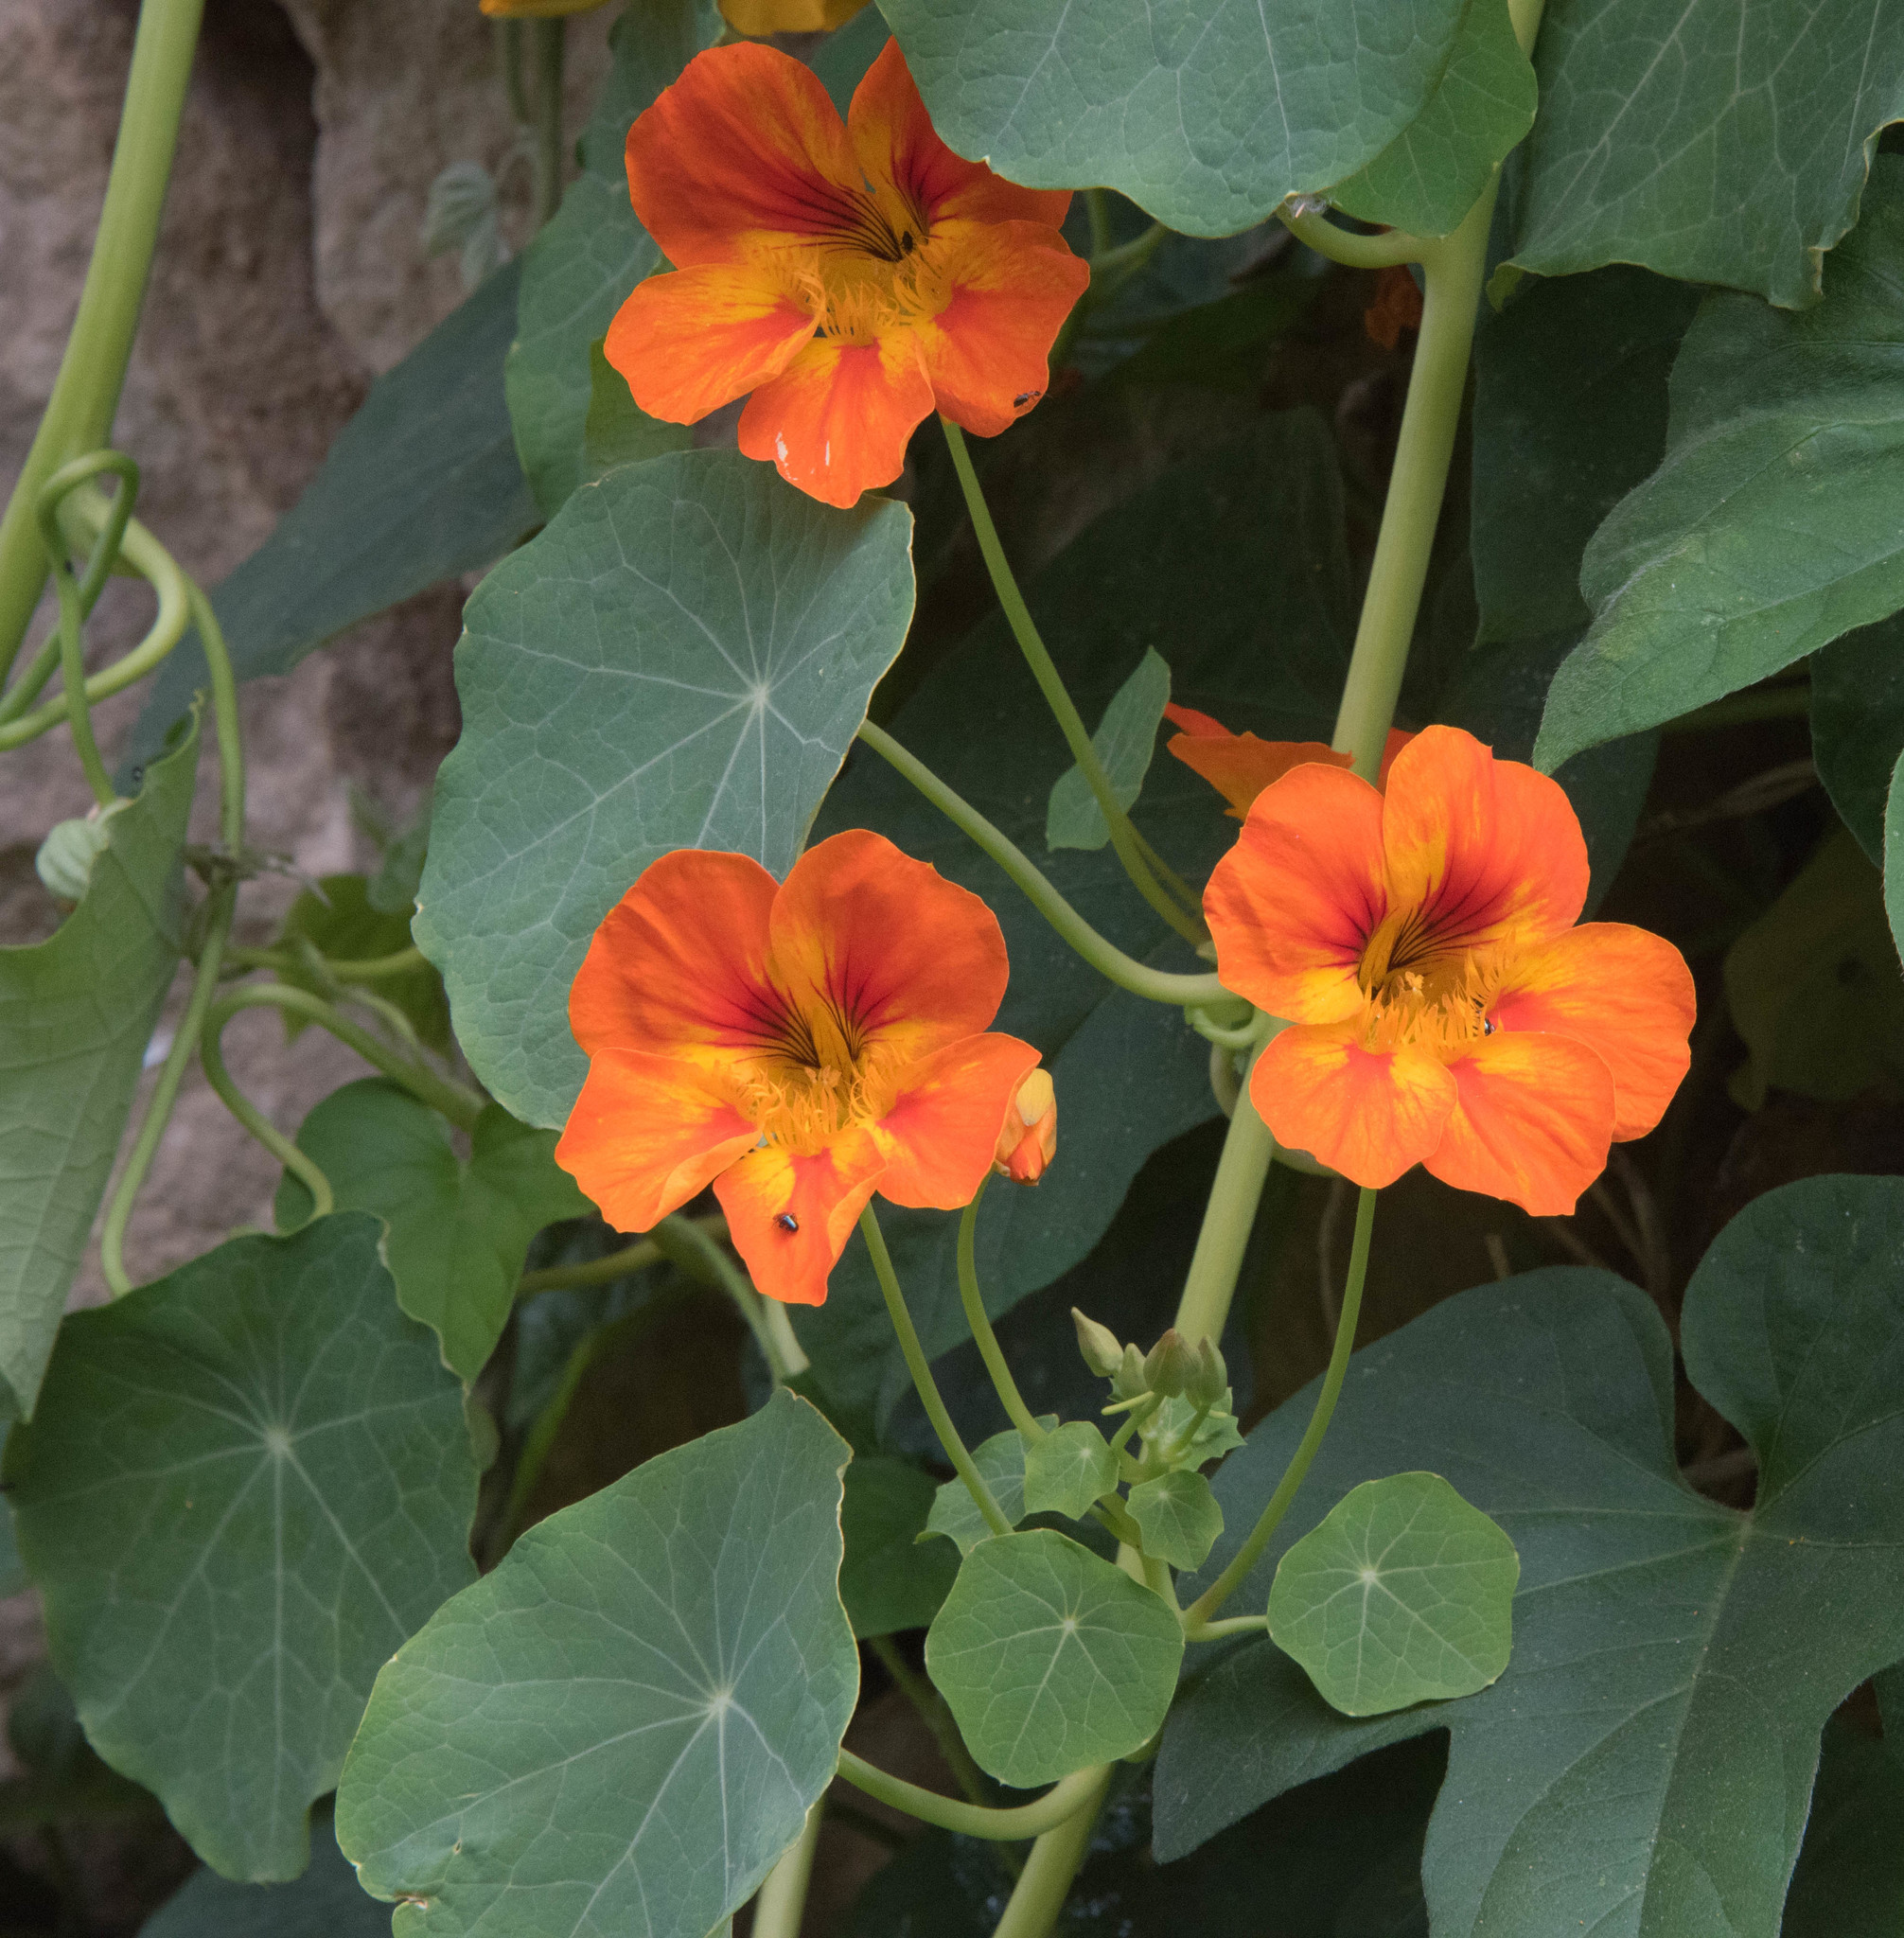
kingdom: Plantae
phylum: Tracheophyta
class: Magnoliopsida
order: Brassicales
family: Tropaeolaceae
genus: Tropaeolum
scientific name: Tropaeolum majus
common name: Nasturtium
